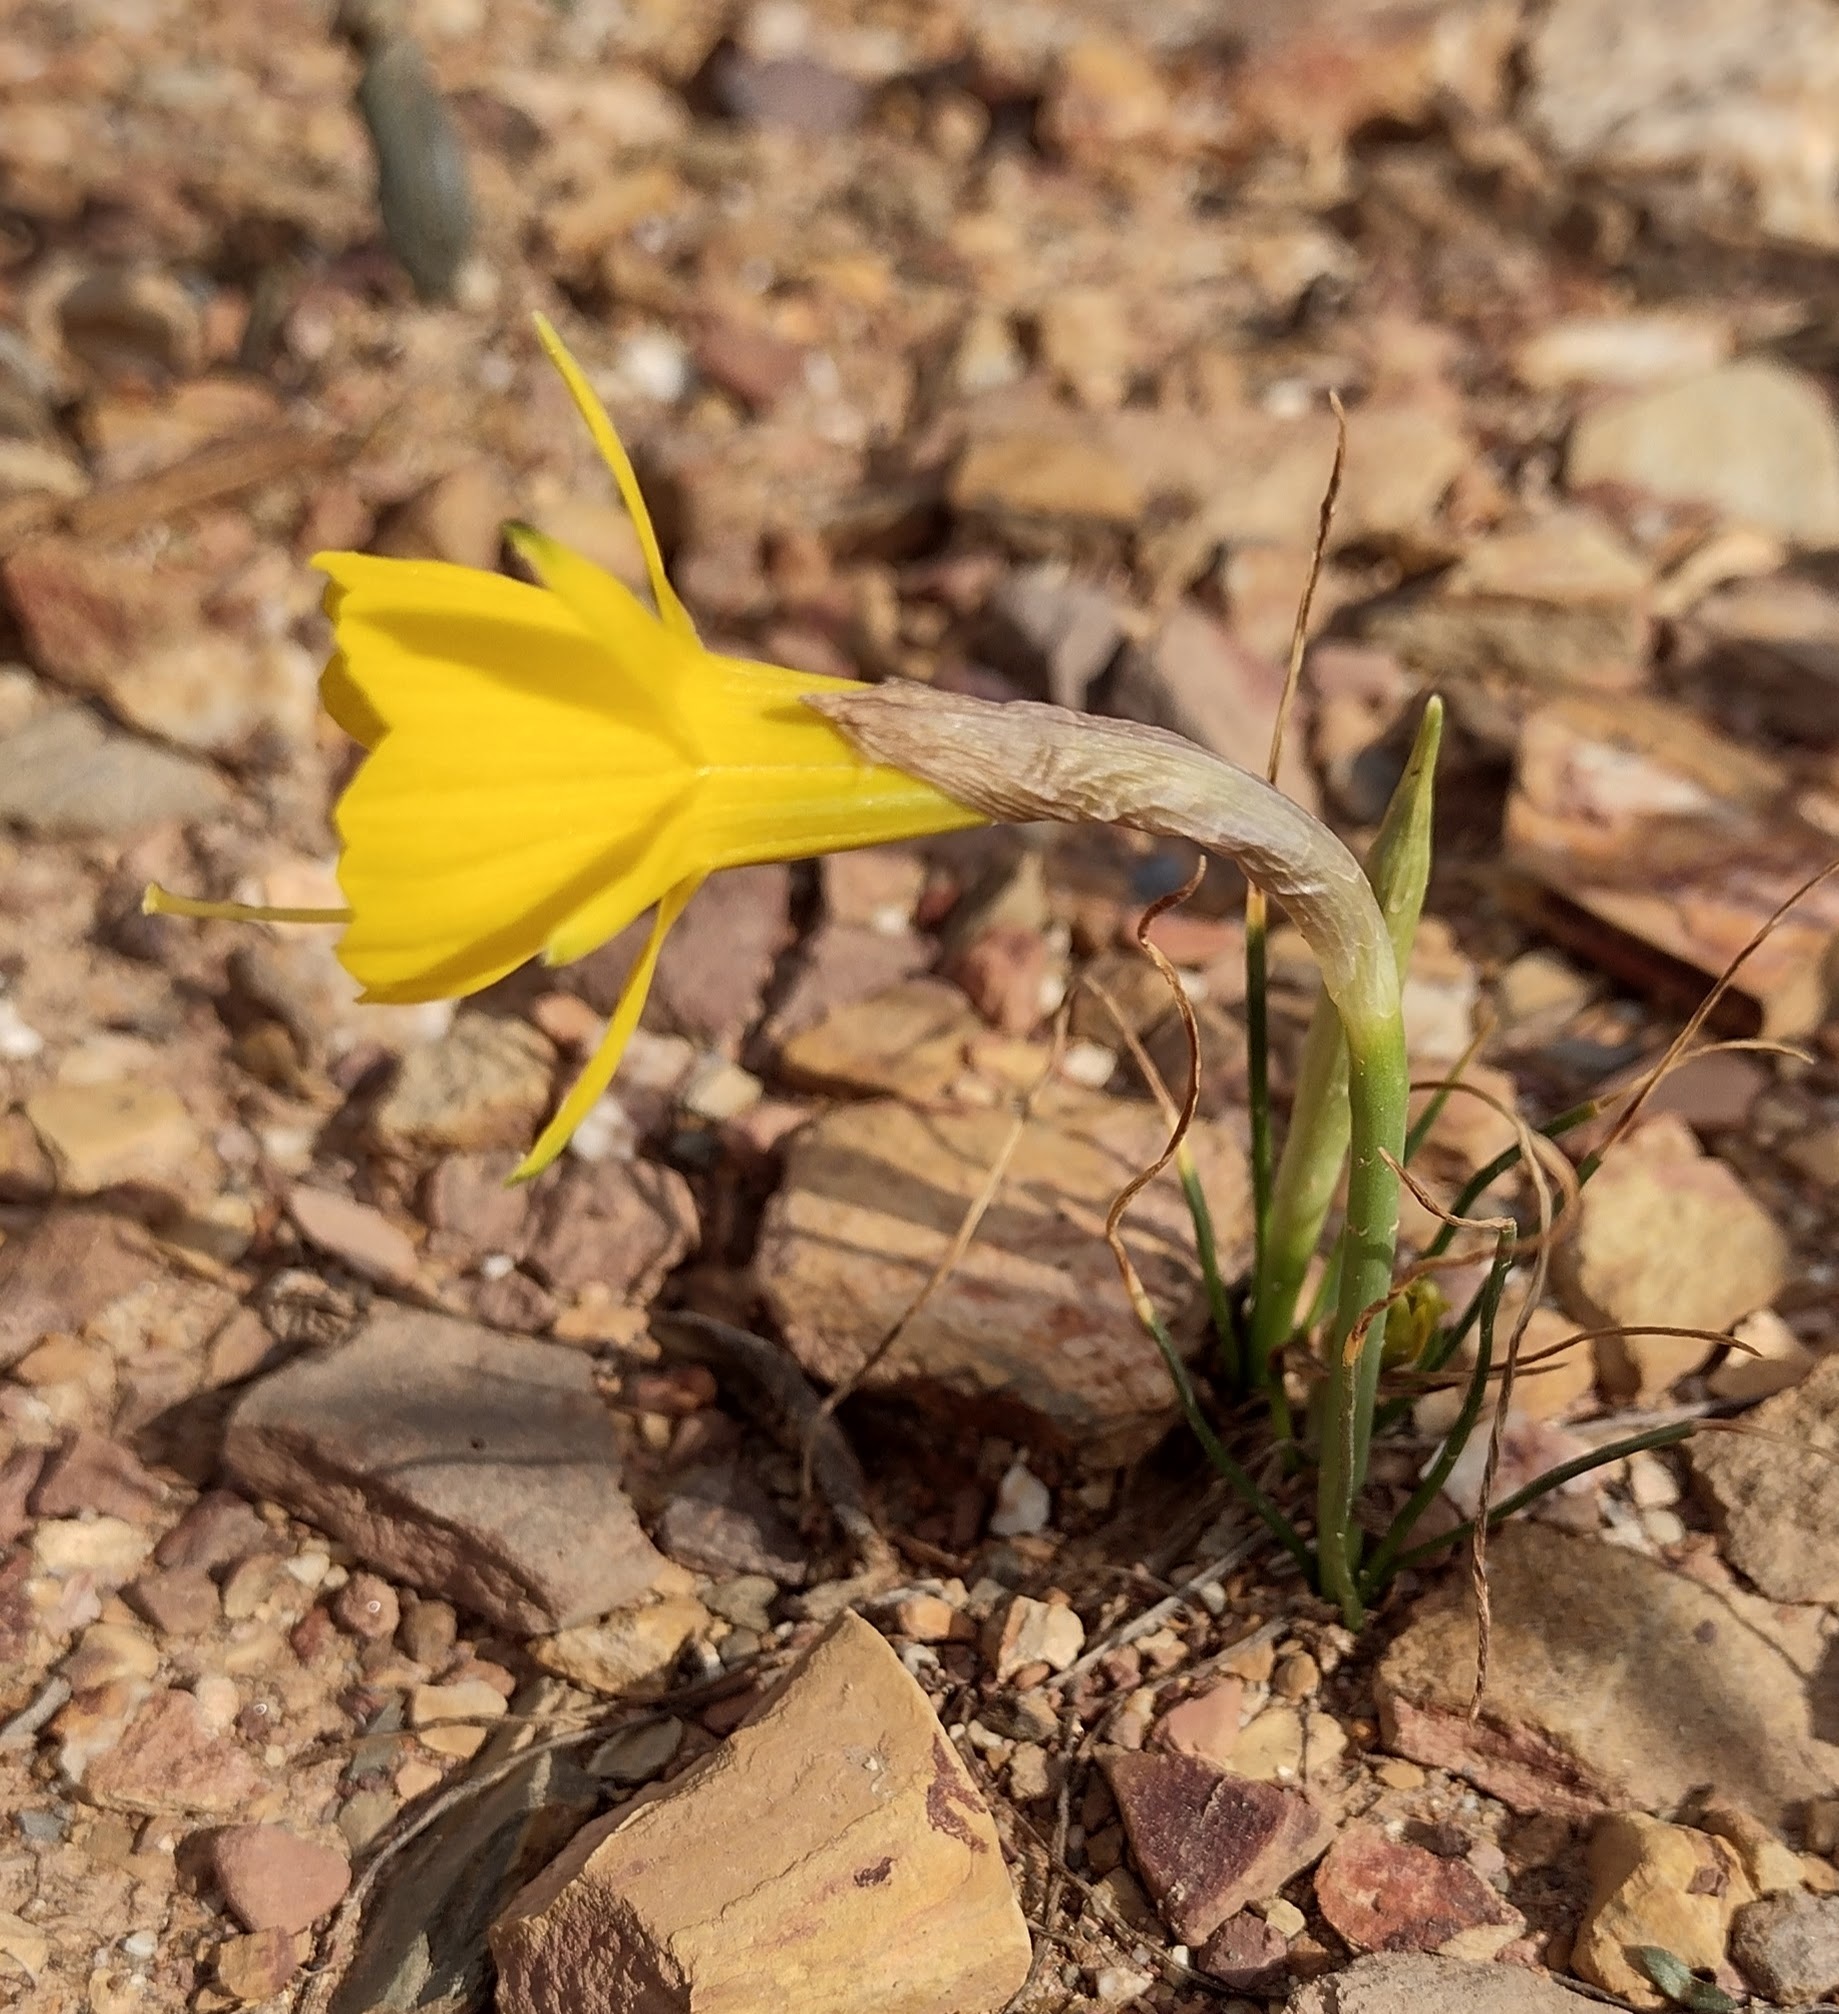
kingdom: Plantae
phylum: Tracheophyta
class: Liliopsida
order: Asparagales
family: Amaryllidaceae
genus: Narcissus
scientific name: Narcissus obesus
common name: Hoop petticoat daffodil
